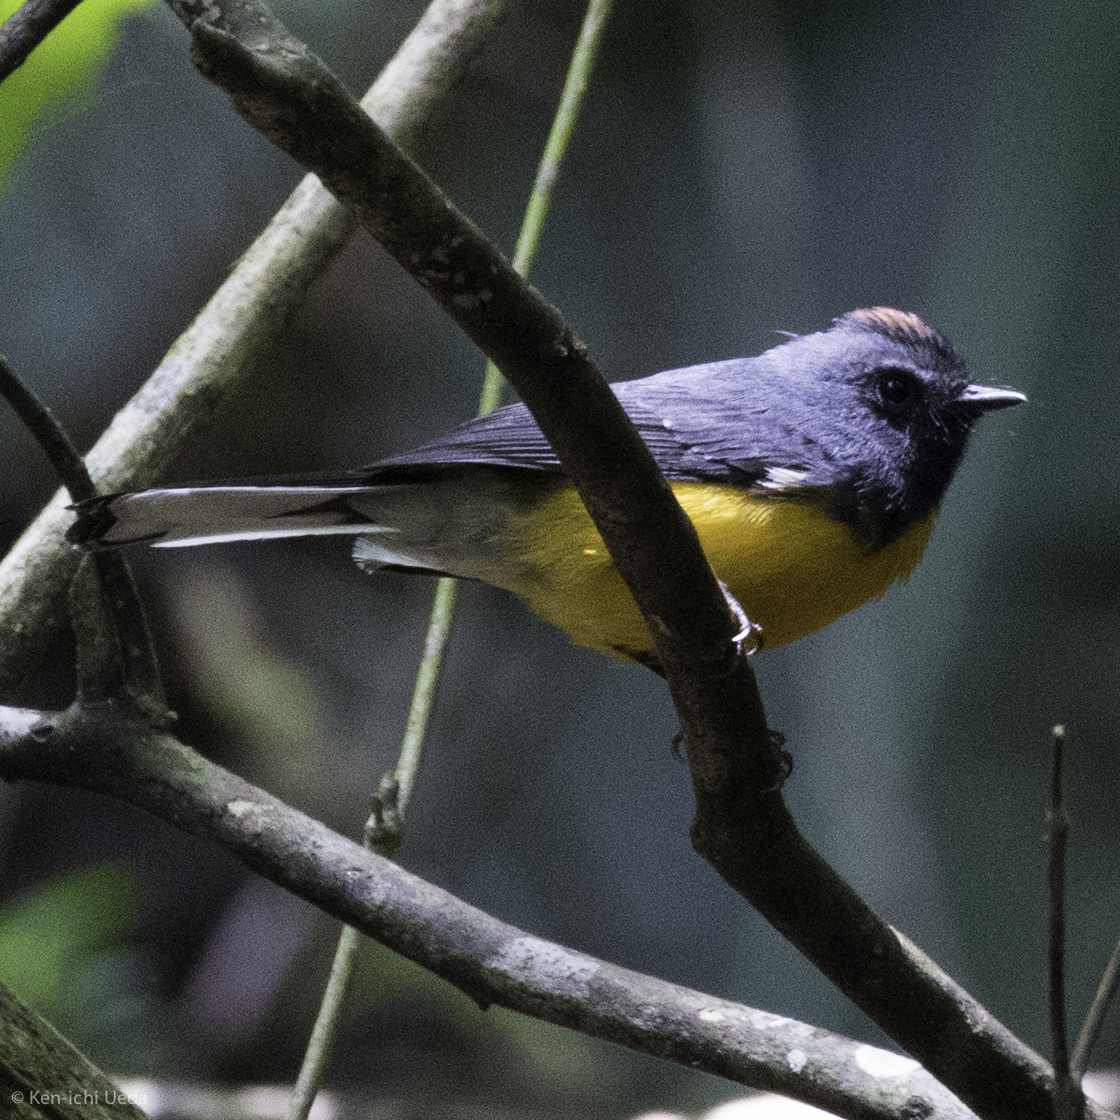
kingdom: Animalia
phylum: Chordata
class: Aves
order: Passeriformes
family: Parulidae
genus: Myioborus
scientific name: Myioborus miniatus
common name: Slate-throated redstart
